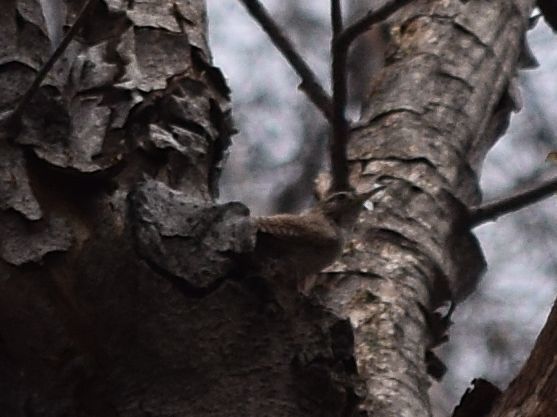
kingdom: Animalia
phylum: Chordata
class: Aves
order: Passeriformes
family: Troglodytidae
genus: Troglodytes
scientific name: Troglodytes aedon
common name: House wren
